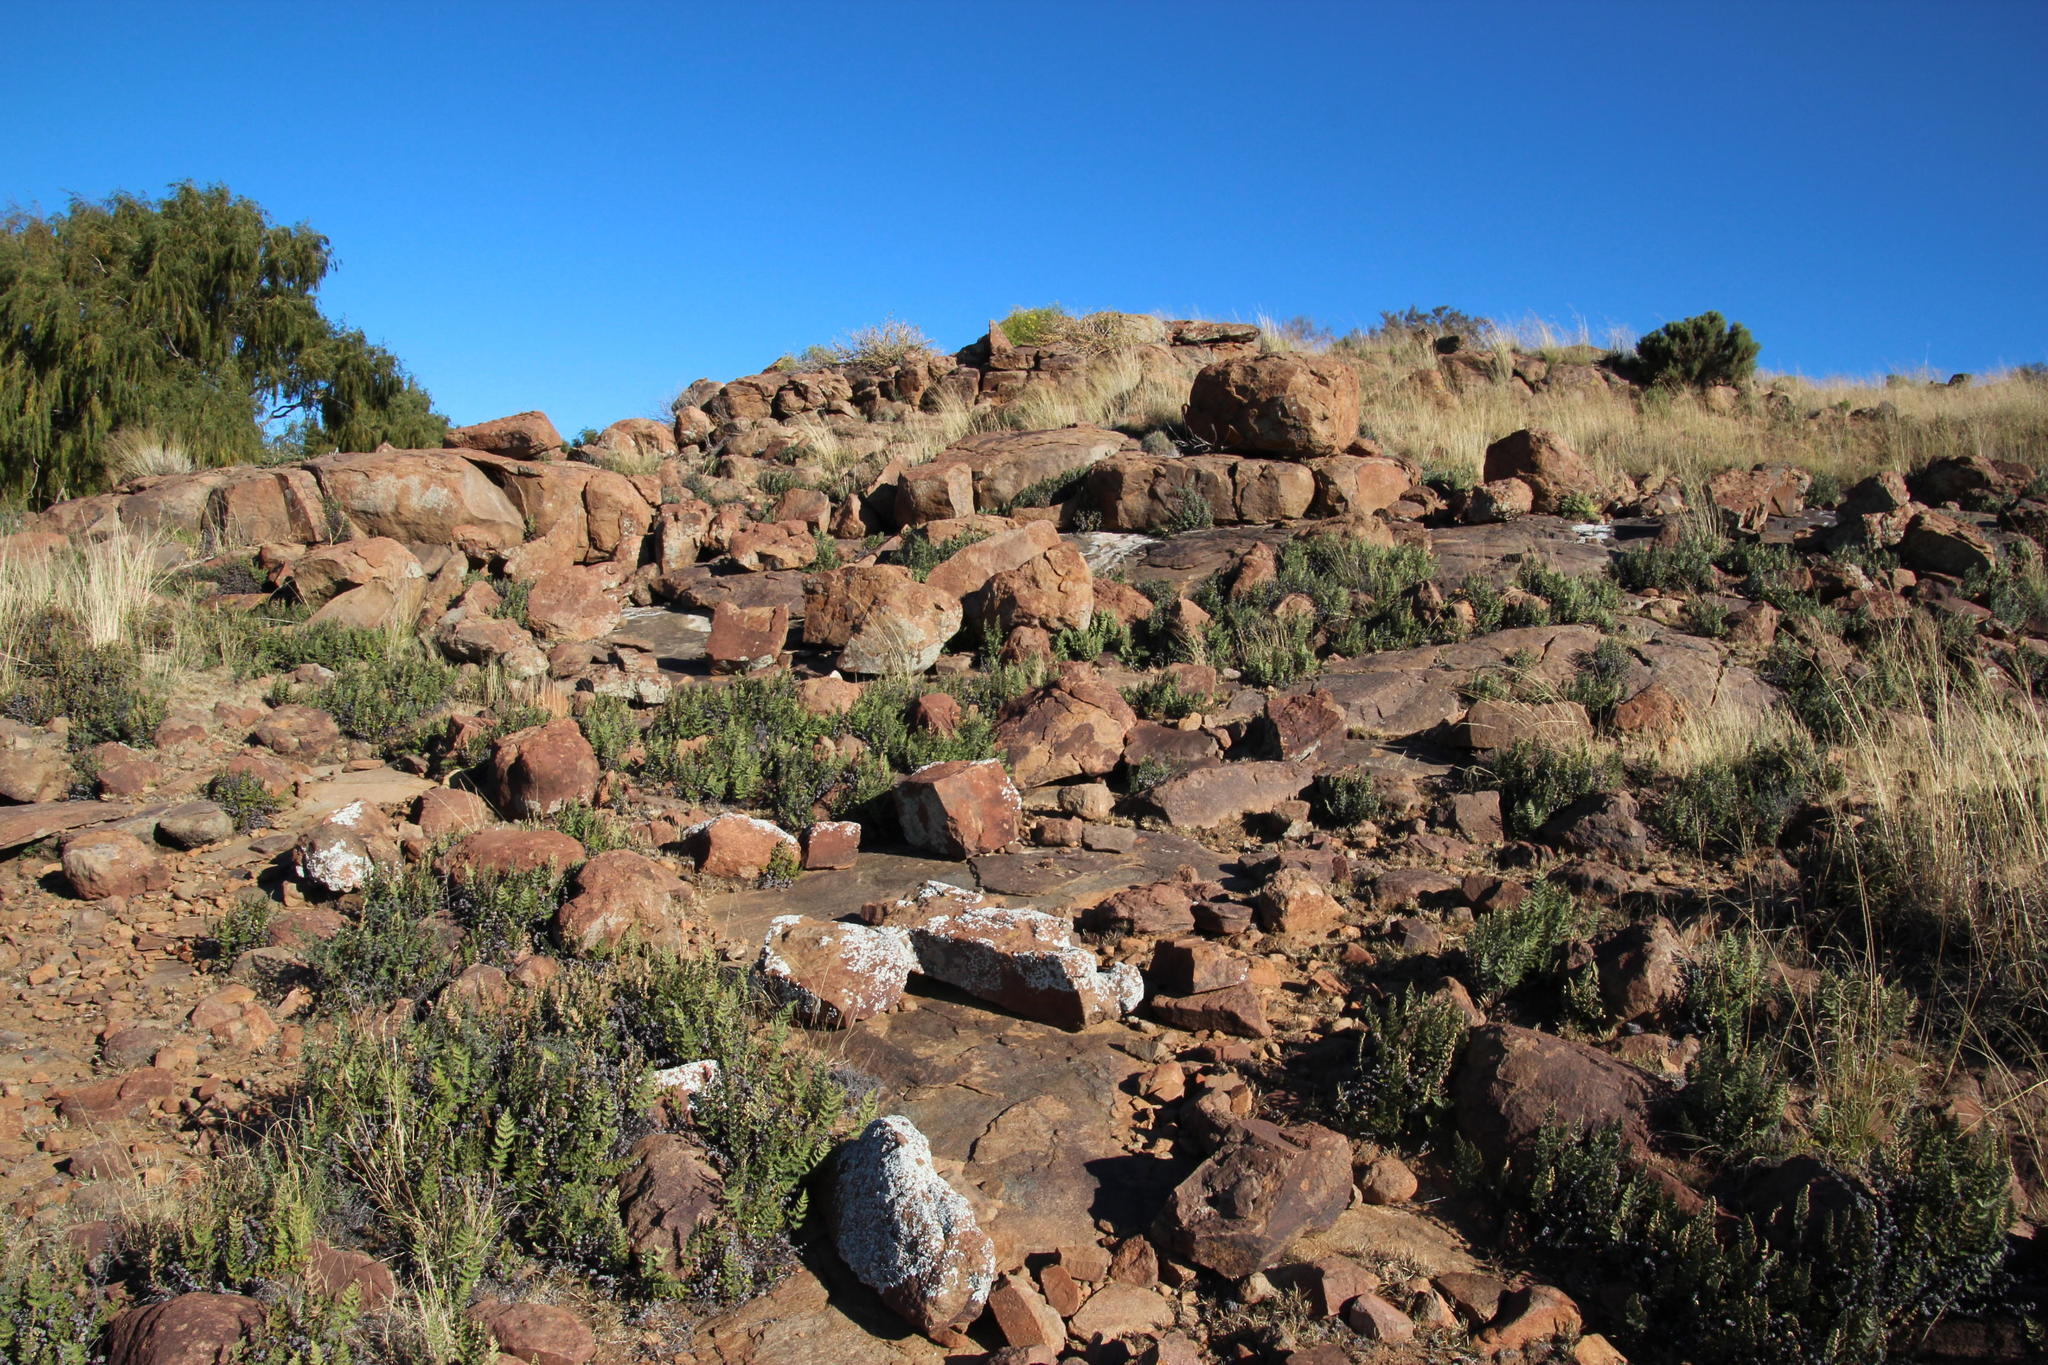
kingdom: Plantae
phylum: Tracheophyta
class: Polypodiopsida
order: Polypodiales
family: Pteridaceae
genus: Cheilanthes
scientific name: Cheilanthes eckloniana
